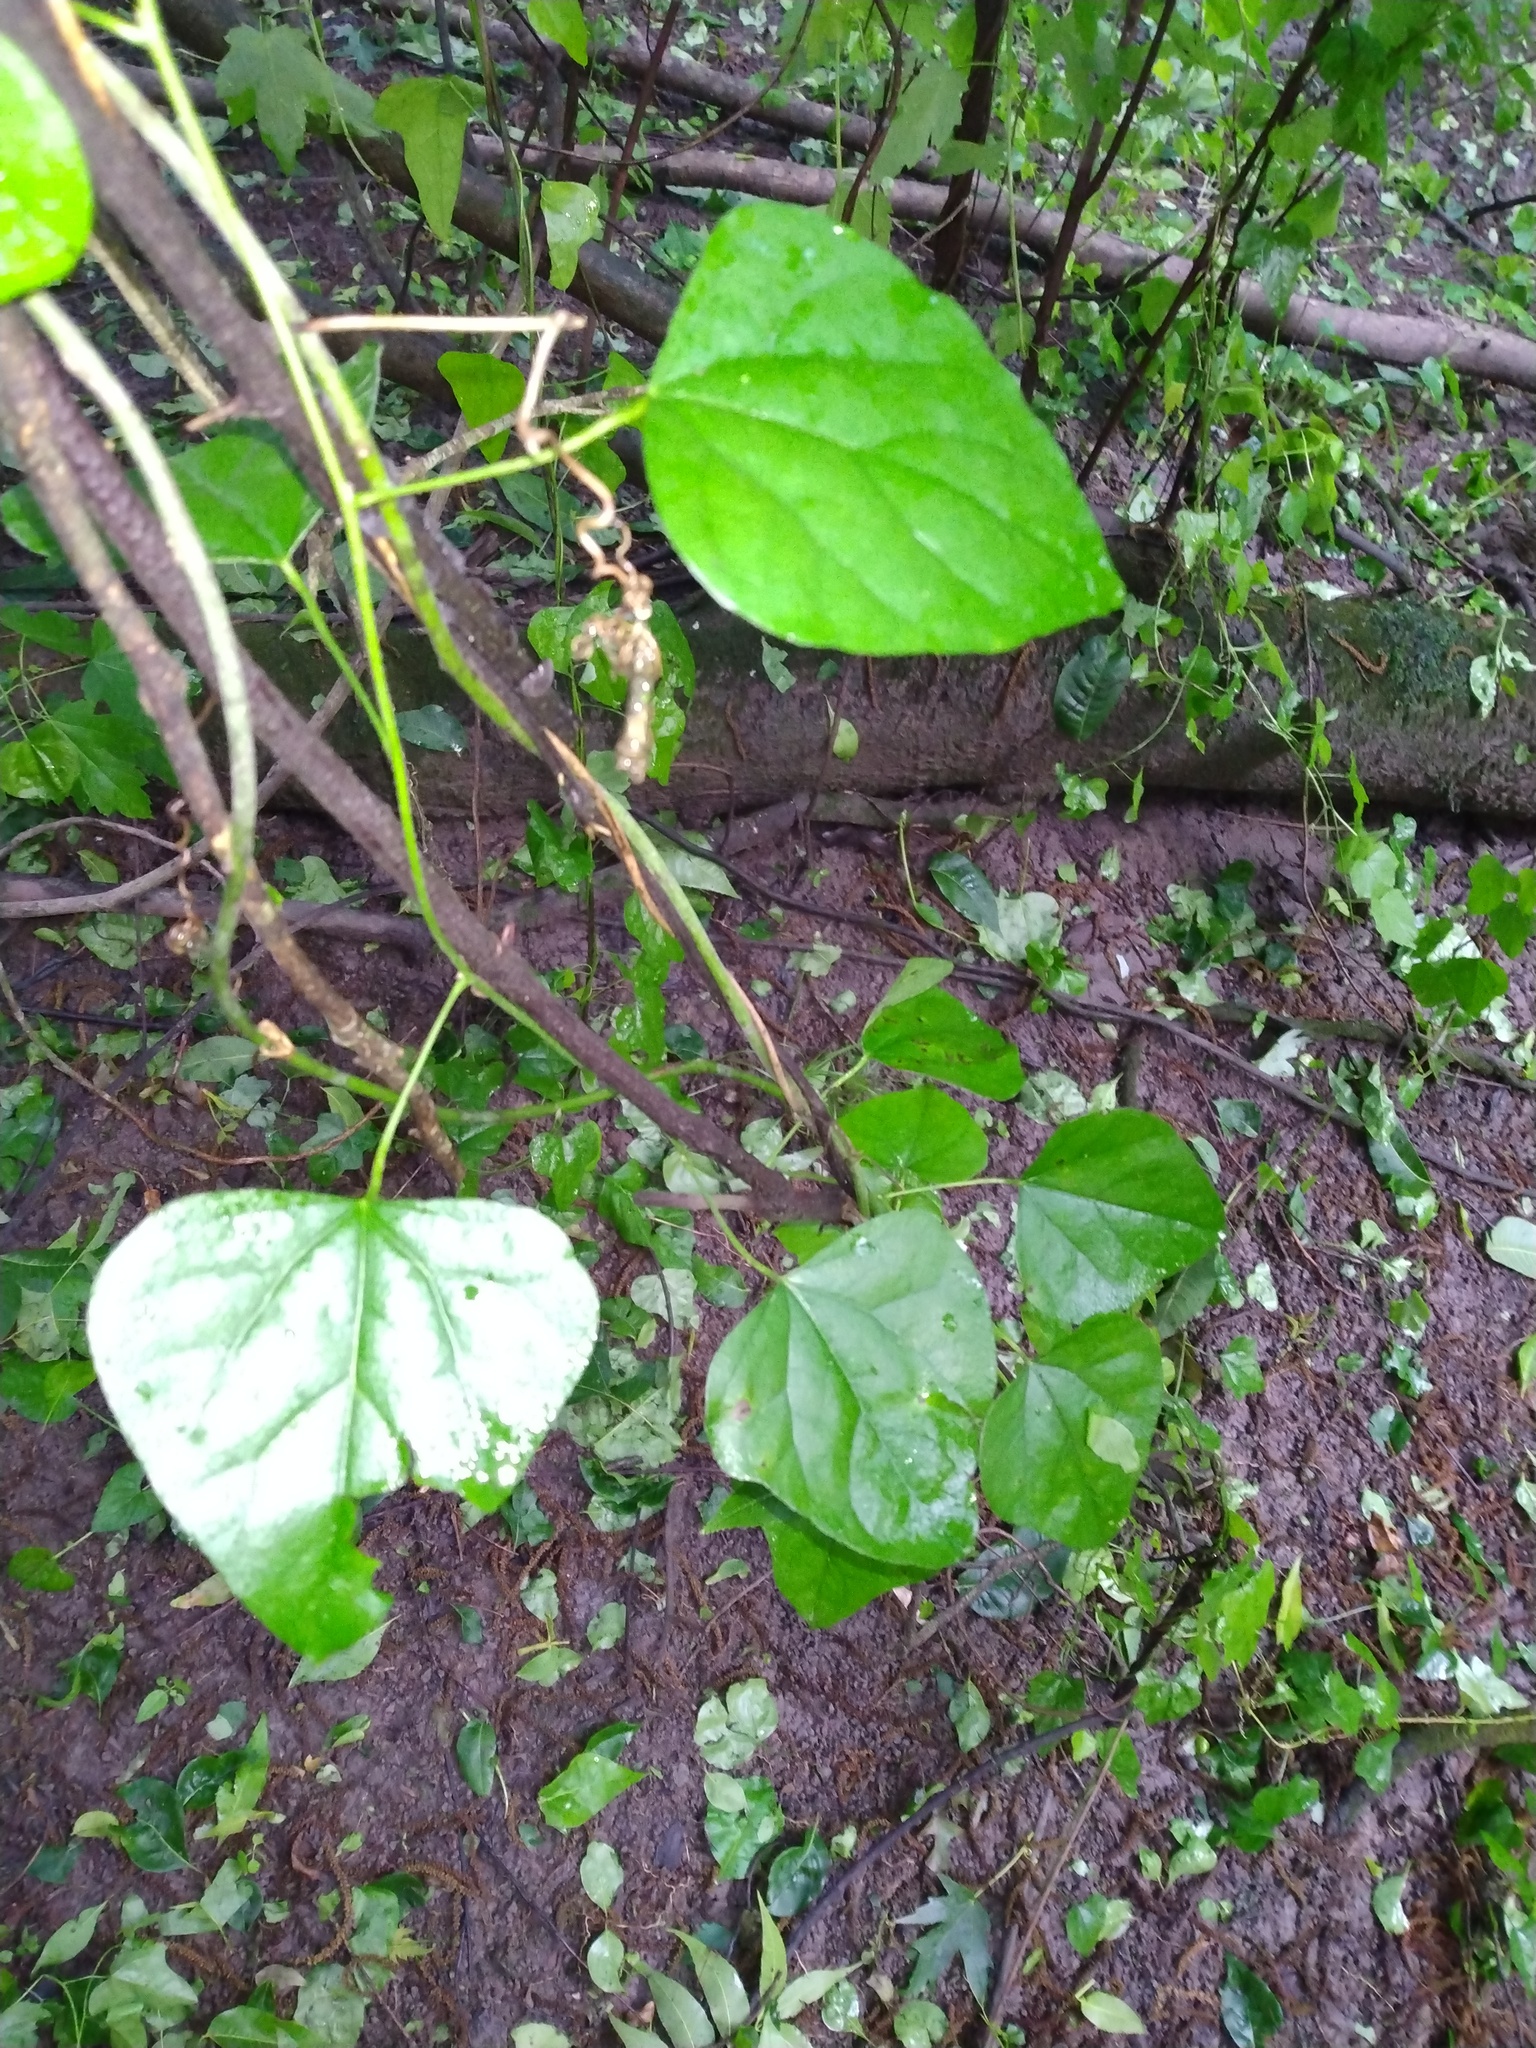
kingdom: Plantae
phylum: Tracheophyta
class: Magnoliopsida
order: Ranunculales
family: Menispermaceae
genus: Cocculus
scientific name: Cocculus carolinus
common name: Carolina moonseed
